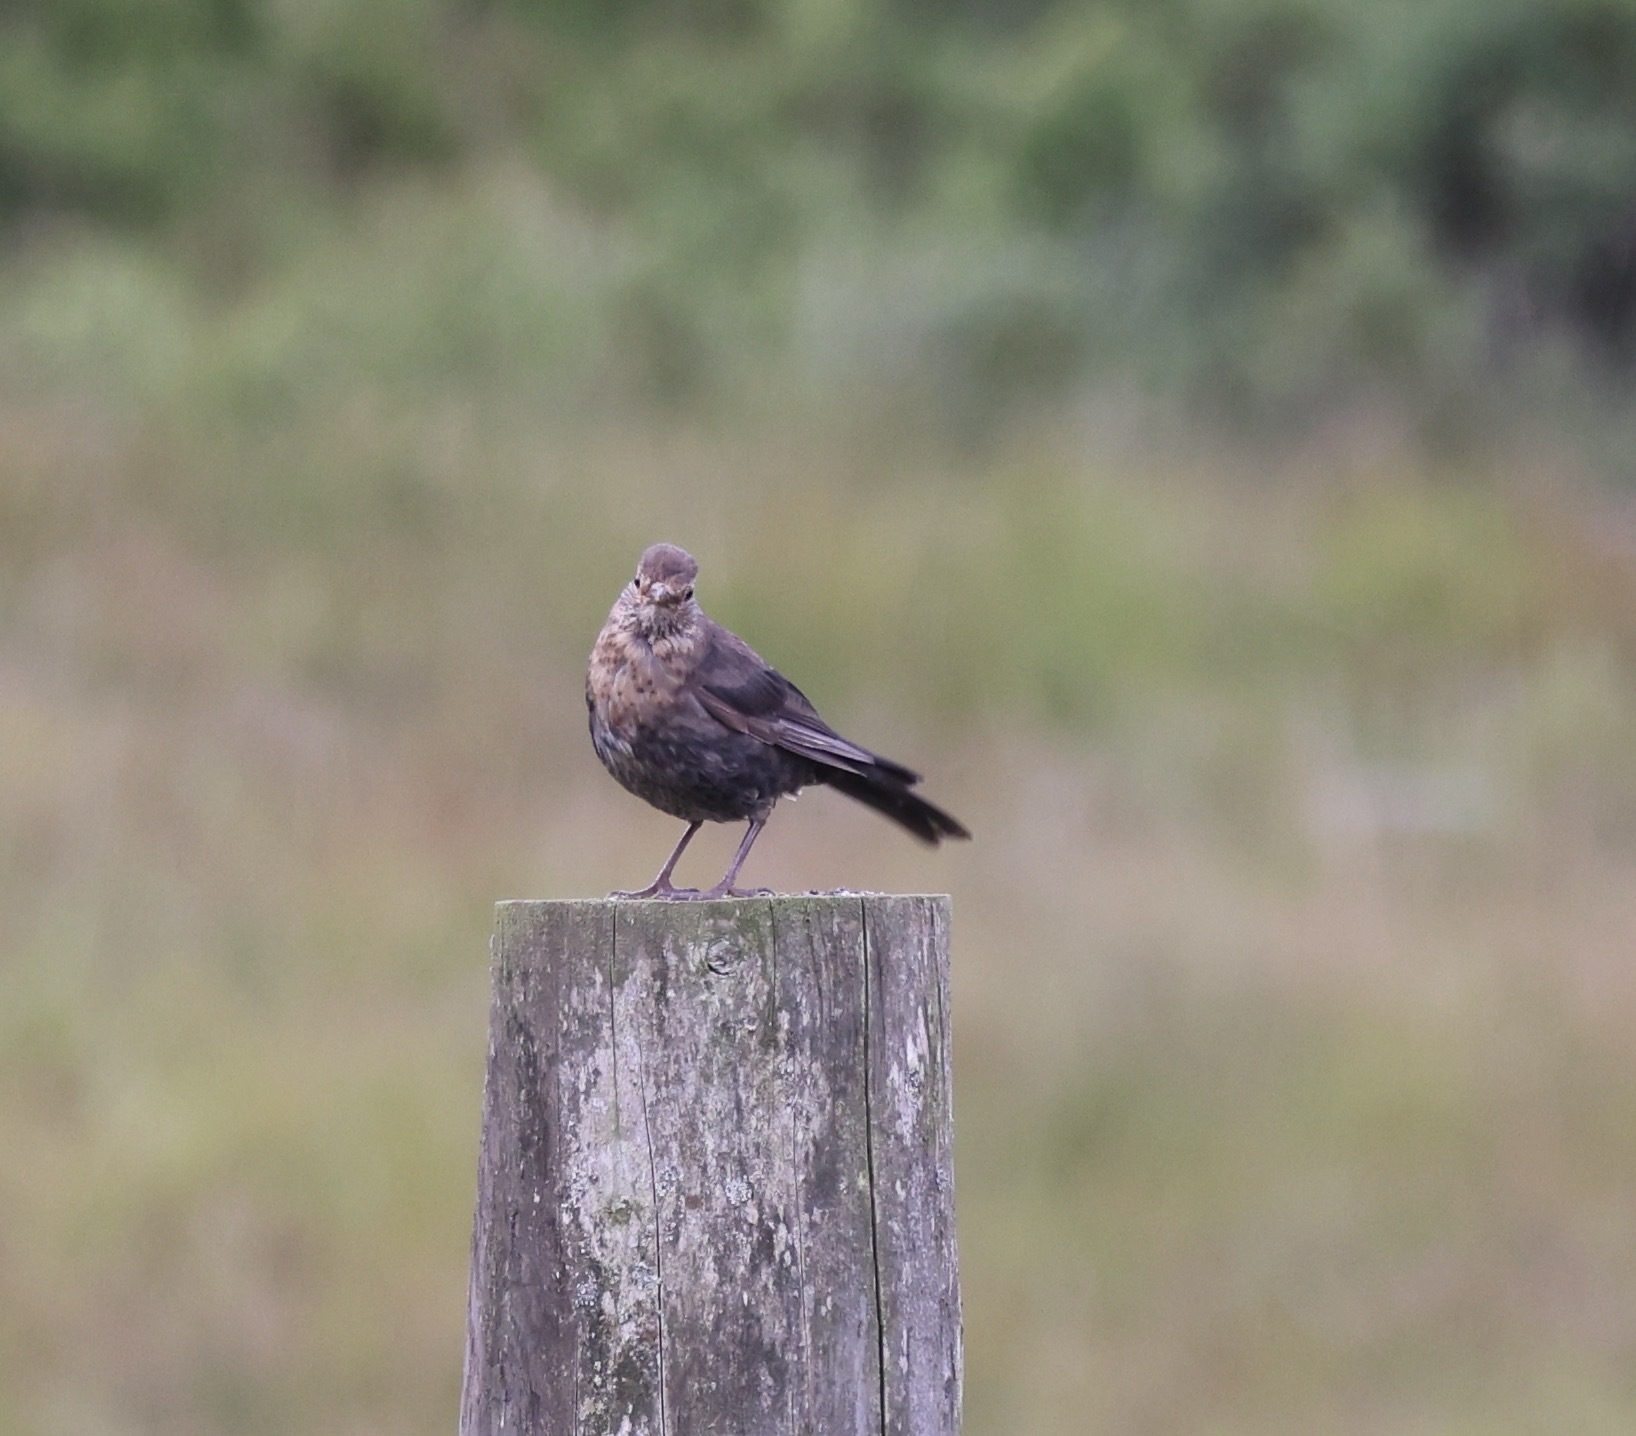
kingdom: Animalia
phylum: Chordata
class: Aves
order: Passeriformes
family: Turdidae
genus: Turdus
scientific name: Turdus merula
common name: Common blackbird
